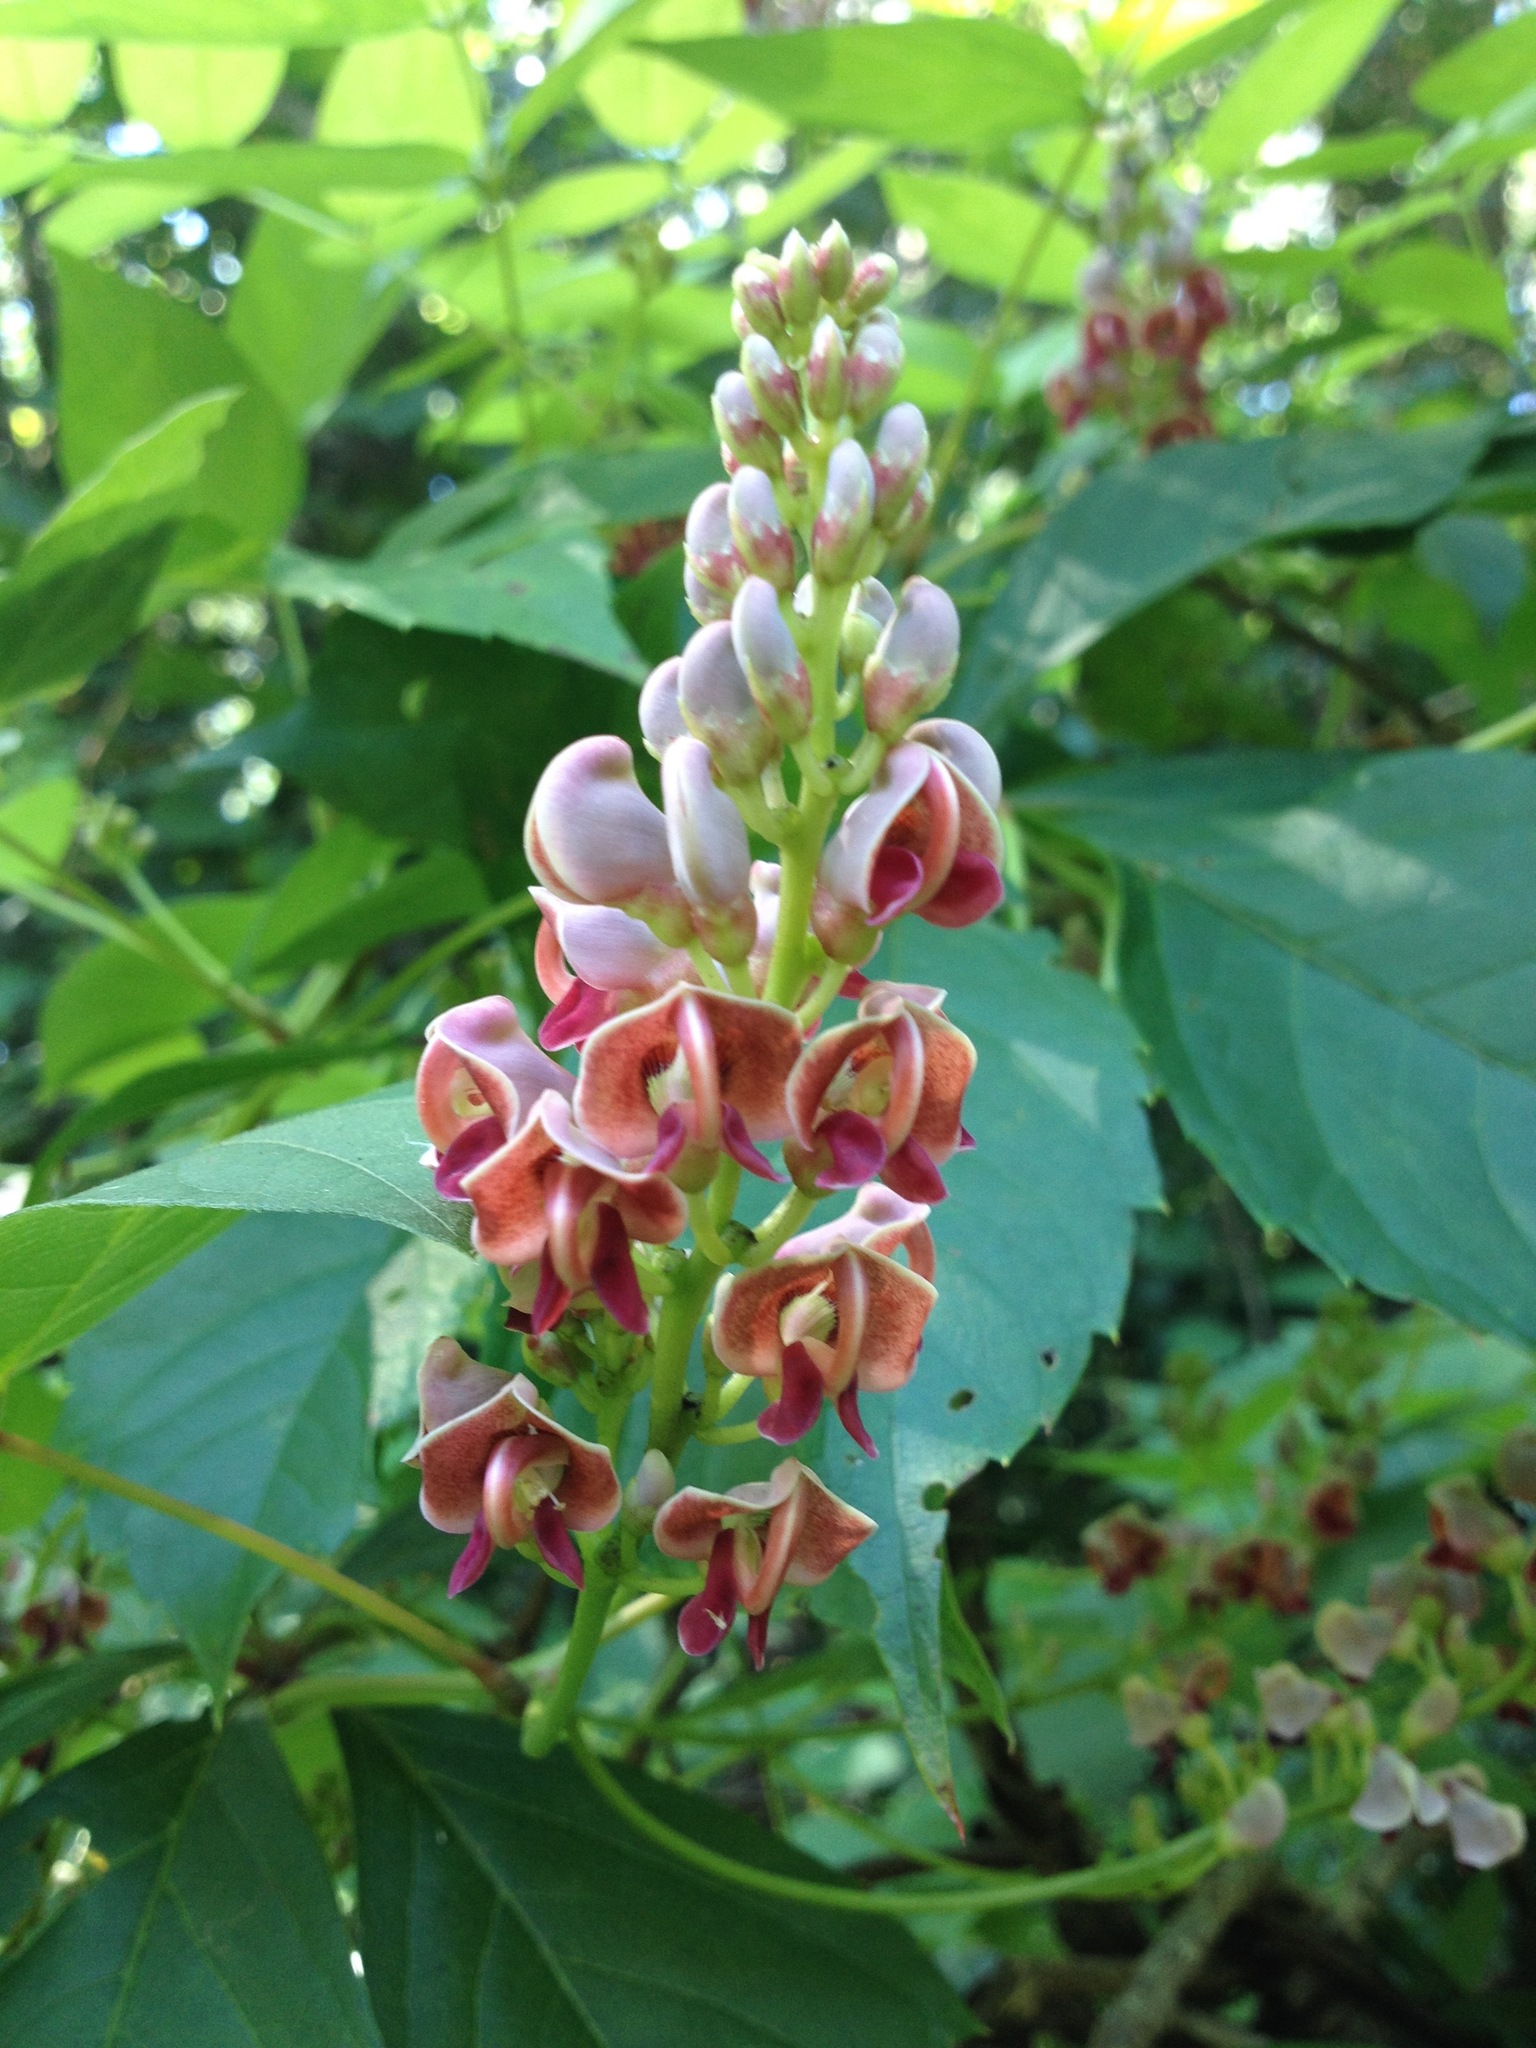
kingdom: Plantae
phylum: Tracheophyta
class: Magnoliopsida
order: Fabales
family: Fabaceae
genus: Apios
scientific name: Apios americana
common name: American potato-bean
